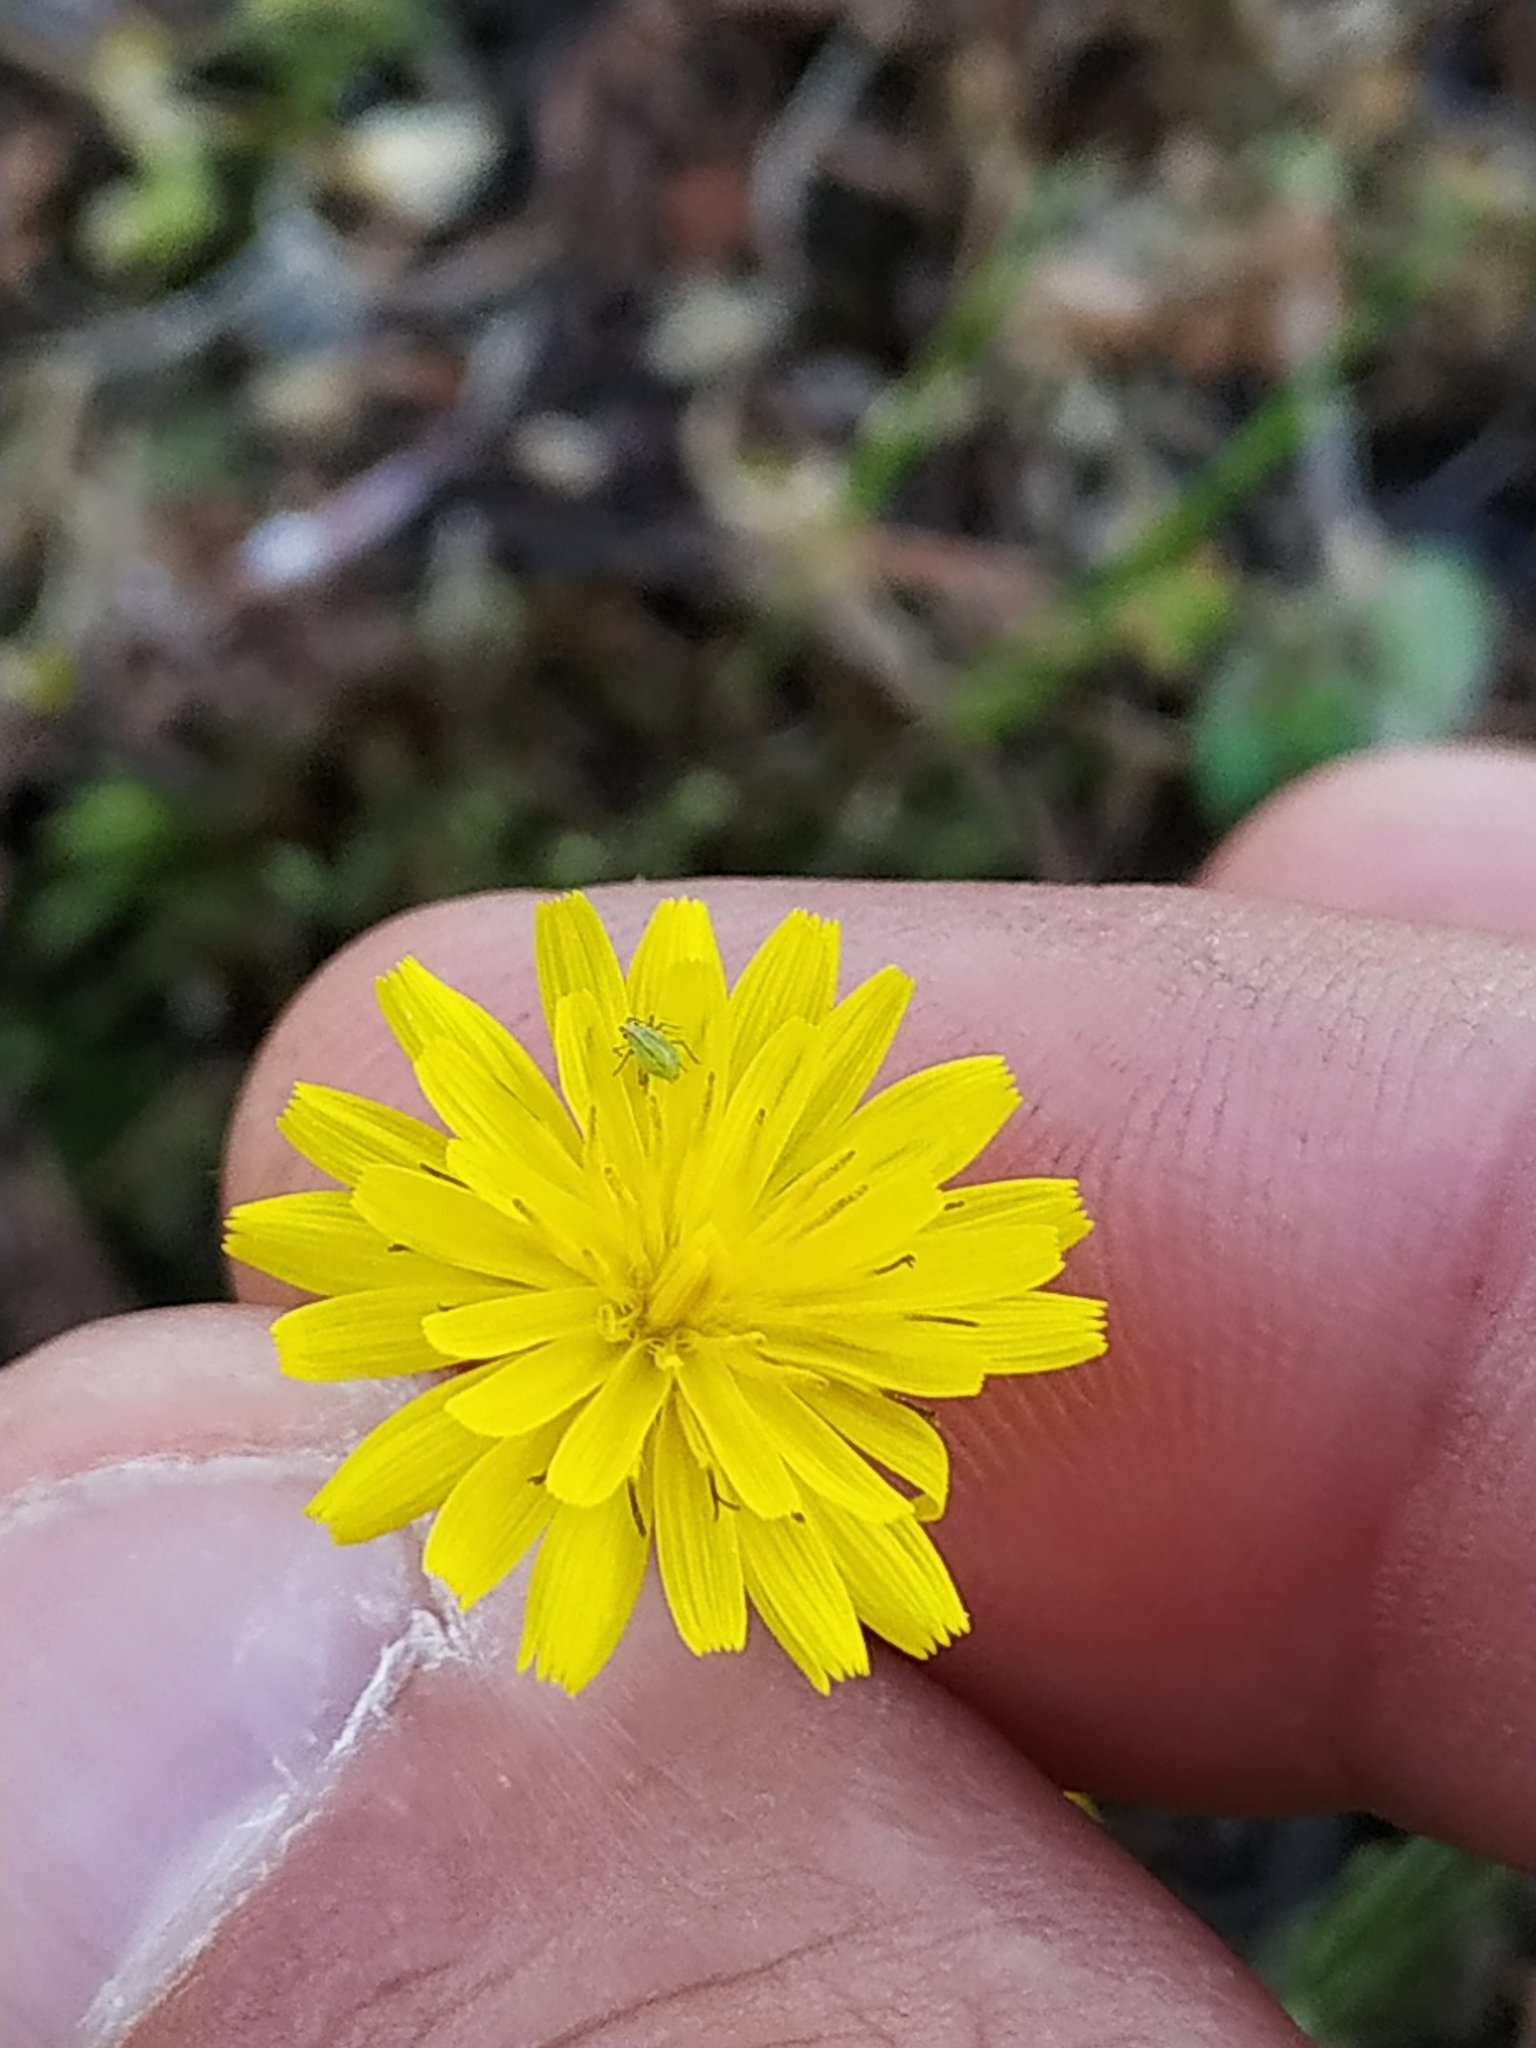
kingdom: Plantae
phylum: Tracheophyta
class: Magnoliopsida
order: Asterales
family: Asteraceae
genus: Crepis
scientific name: Crepis sancta
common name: Hawk's-beard
